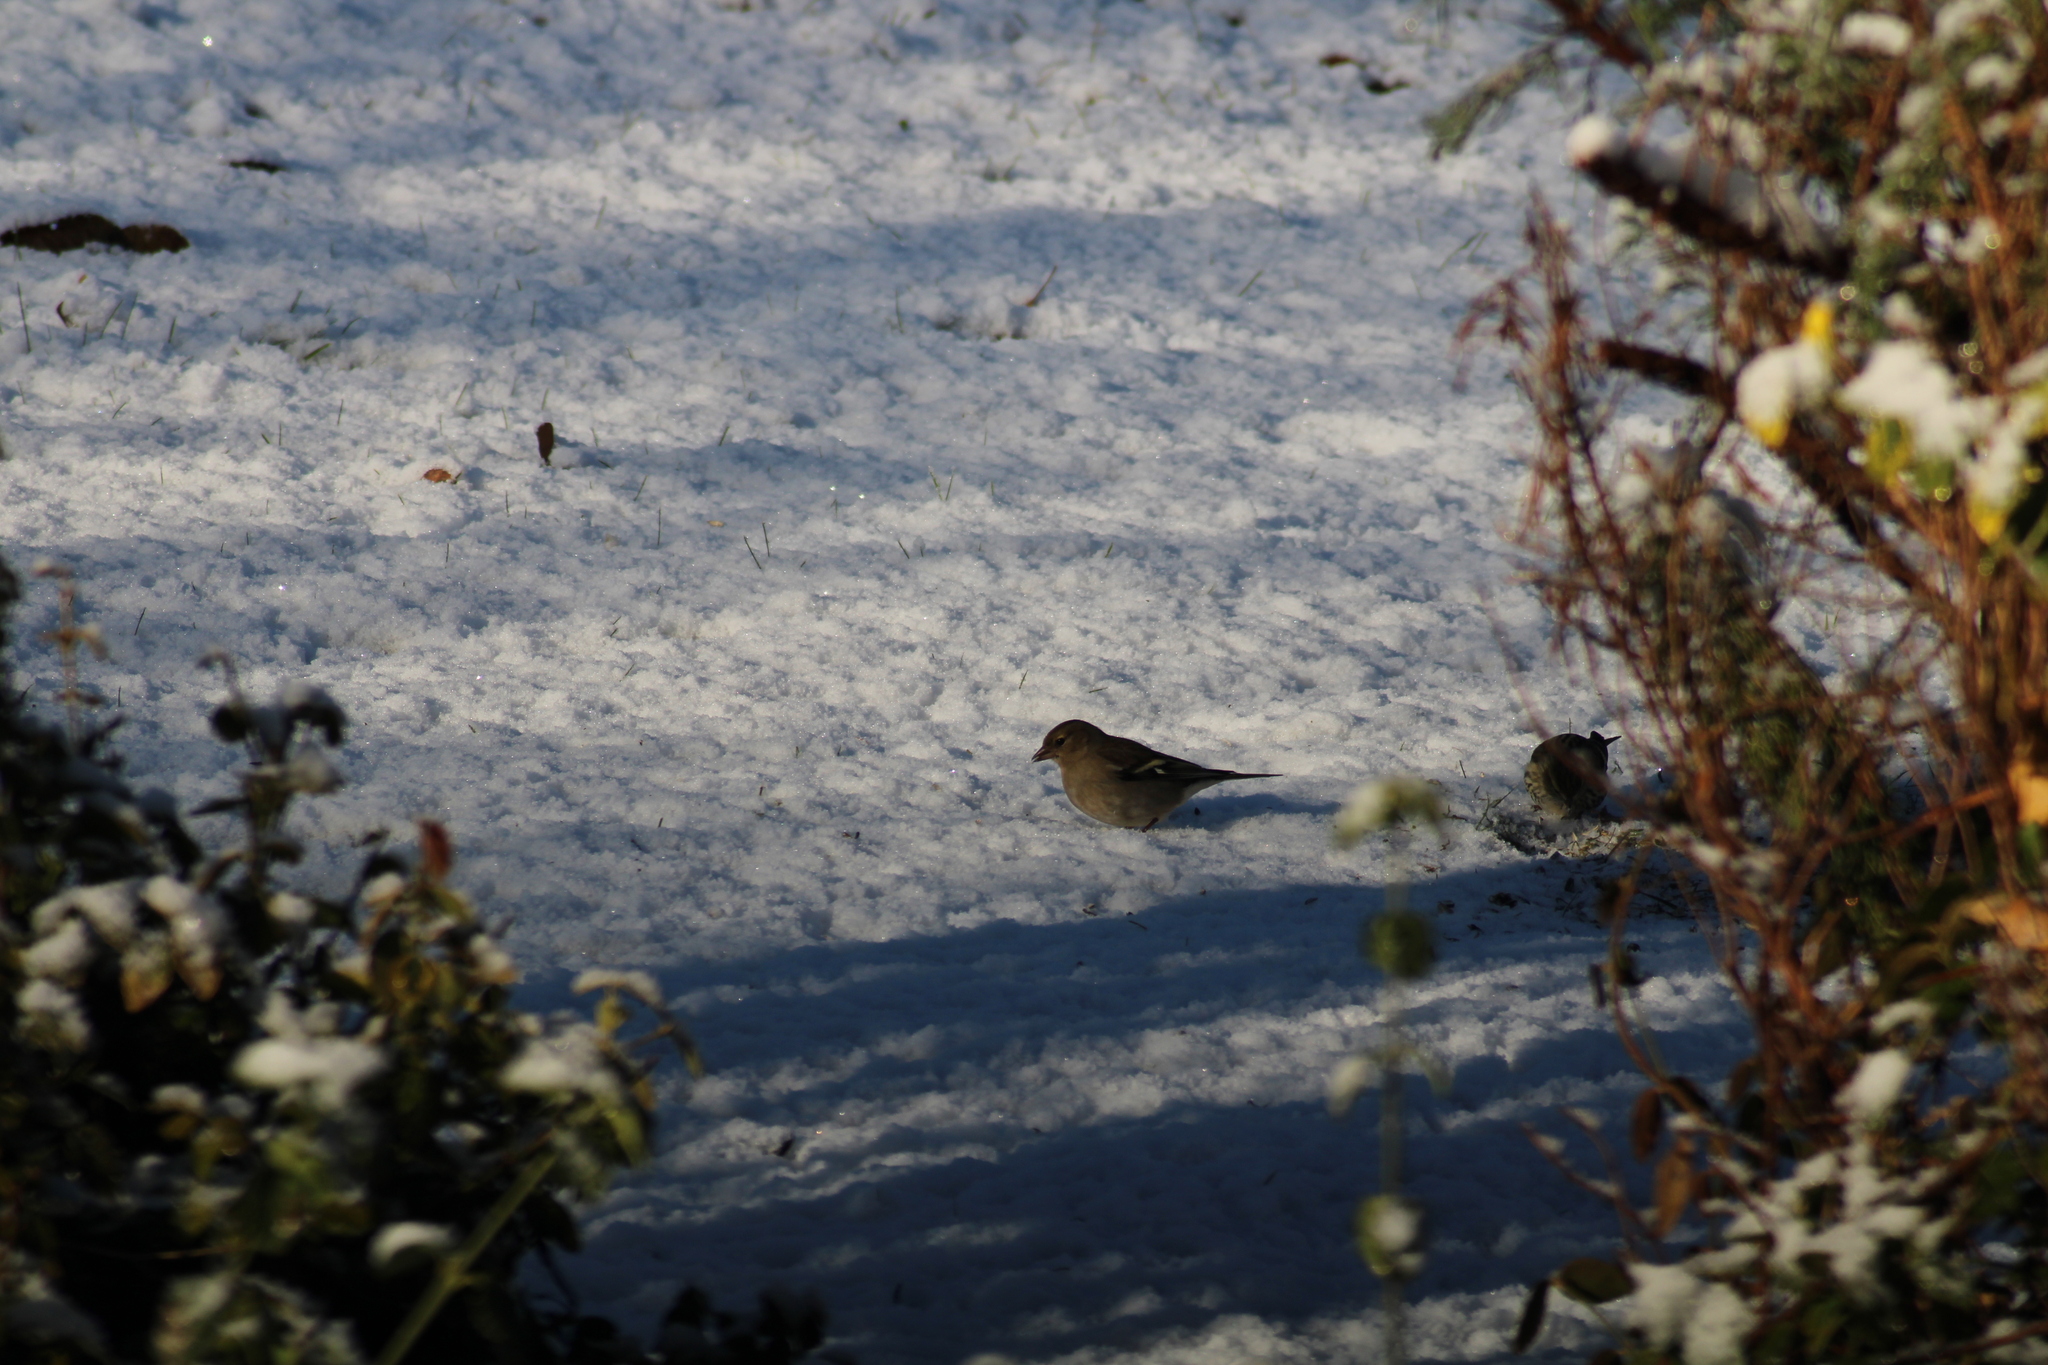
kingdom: Animalia
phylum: Chordata
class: Aves
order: Passeriformes
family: Fringillidae
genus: Fringilla
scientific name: Fringilla coelebs
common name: Common chaffinch
